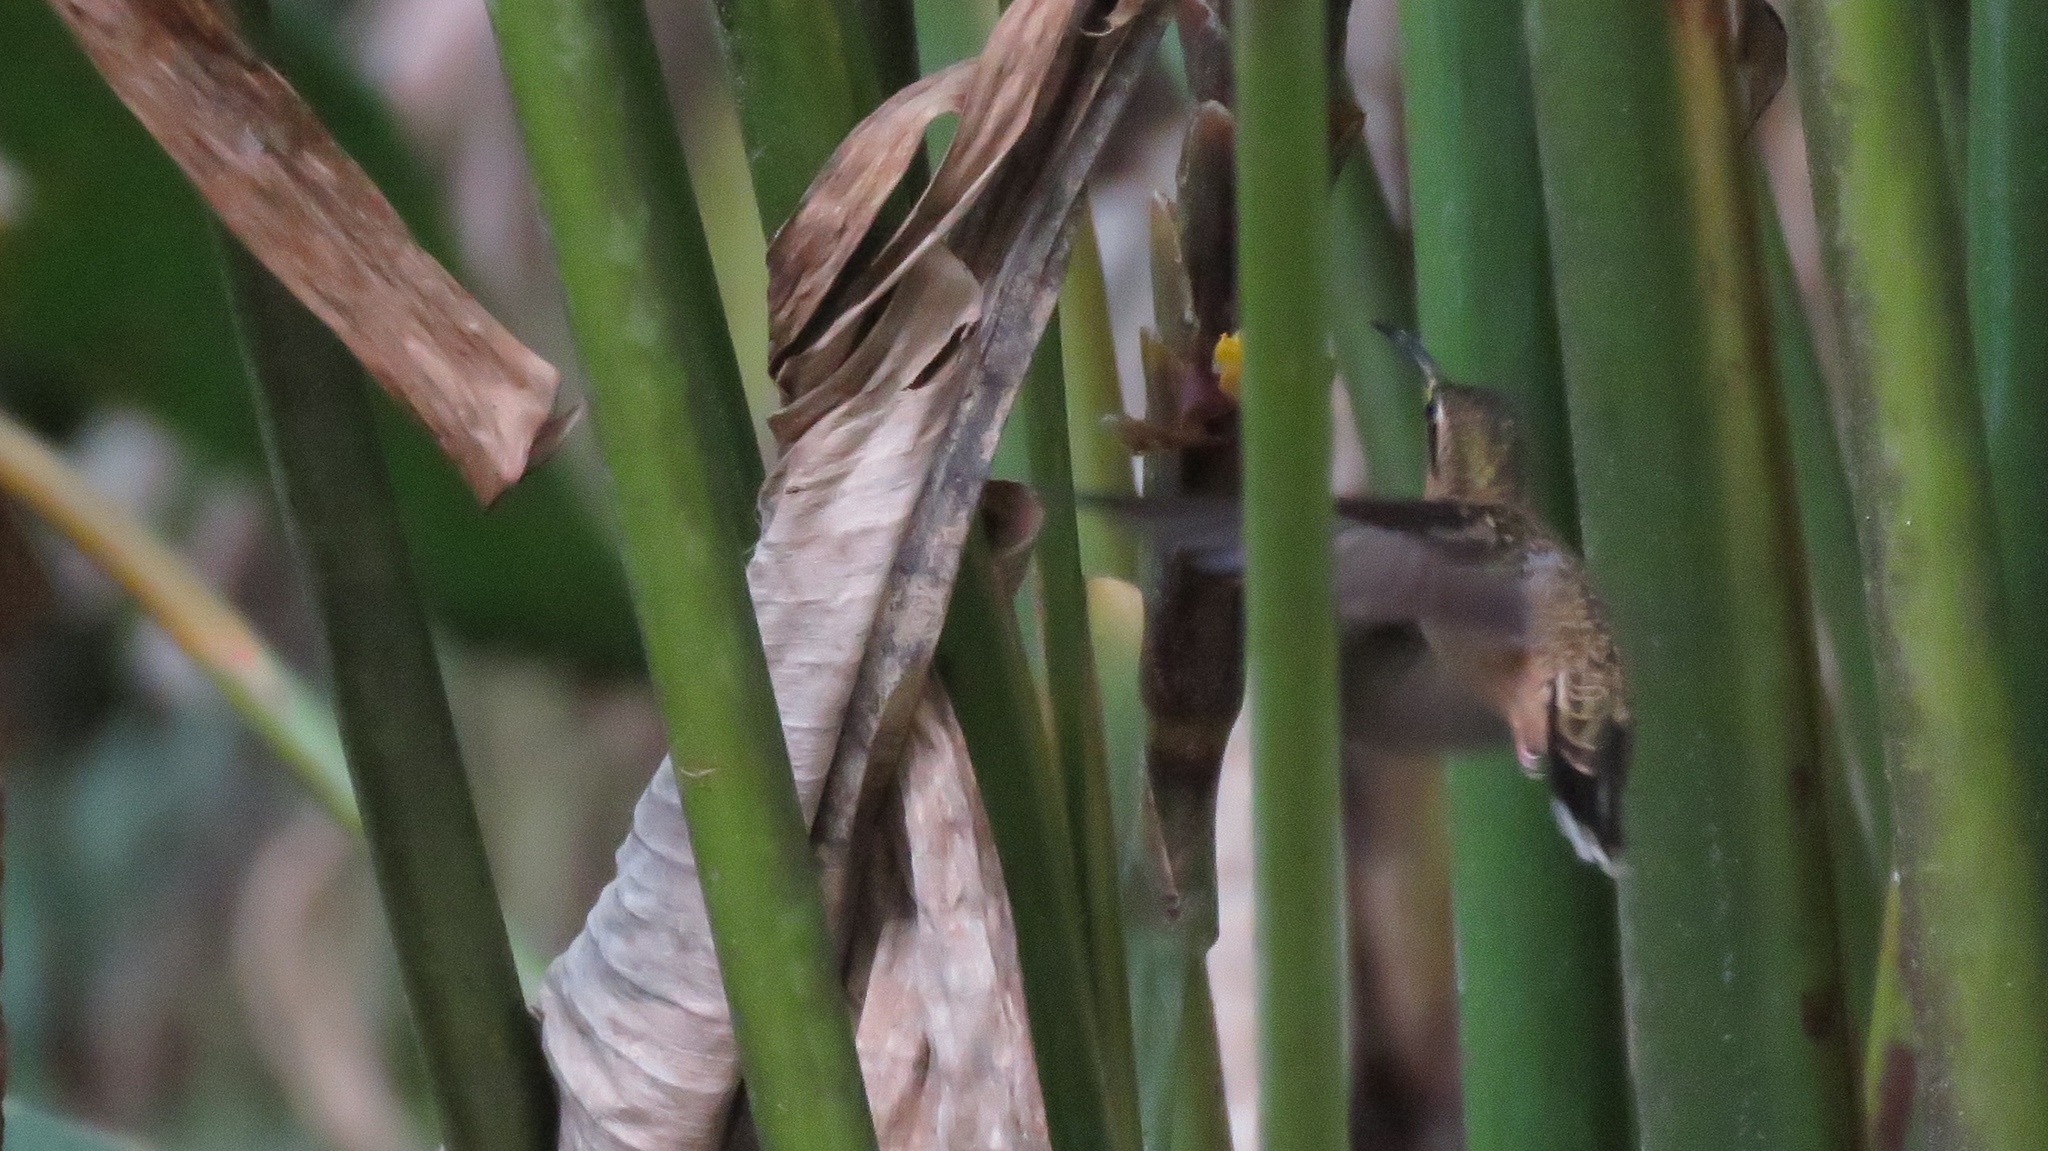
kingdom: Animalia
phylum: Chordata
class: Aves
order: Apodiformes
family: Trochilidae
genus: Threnetes
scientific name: Threnetes ruckeri
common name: Band-tailed barbthroat
